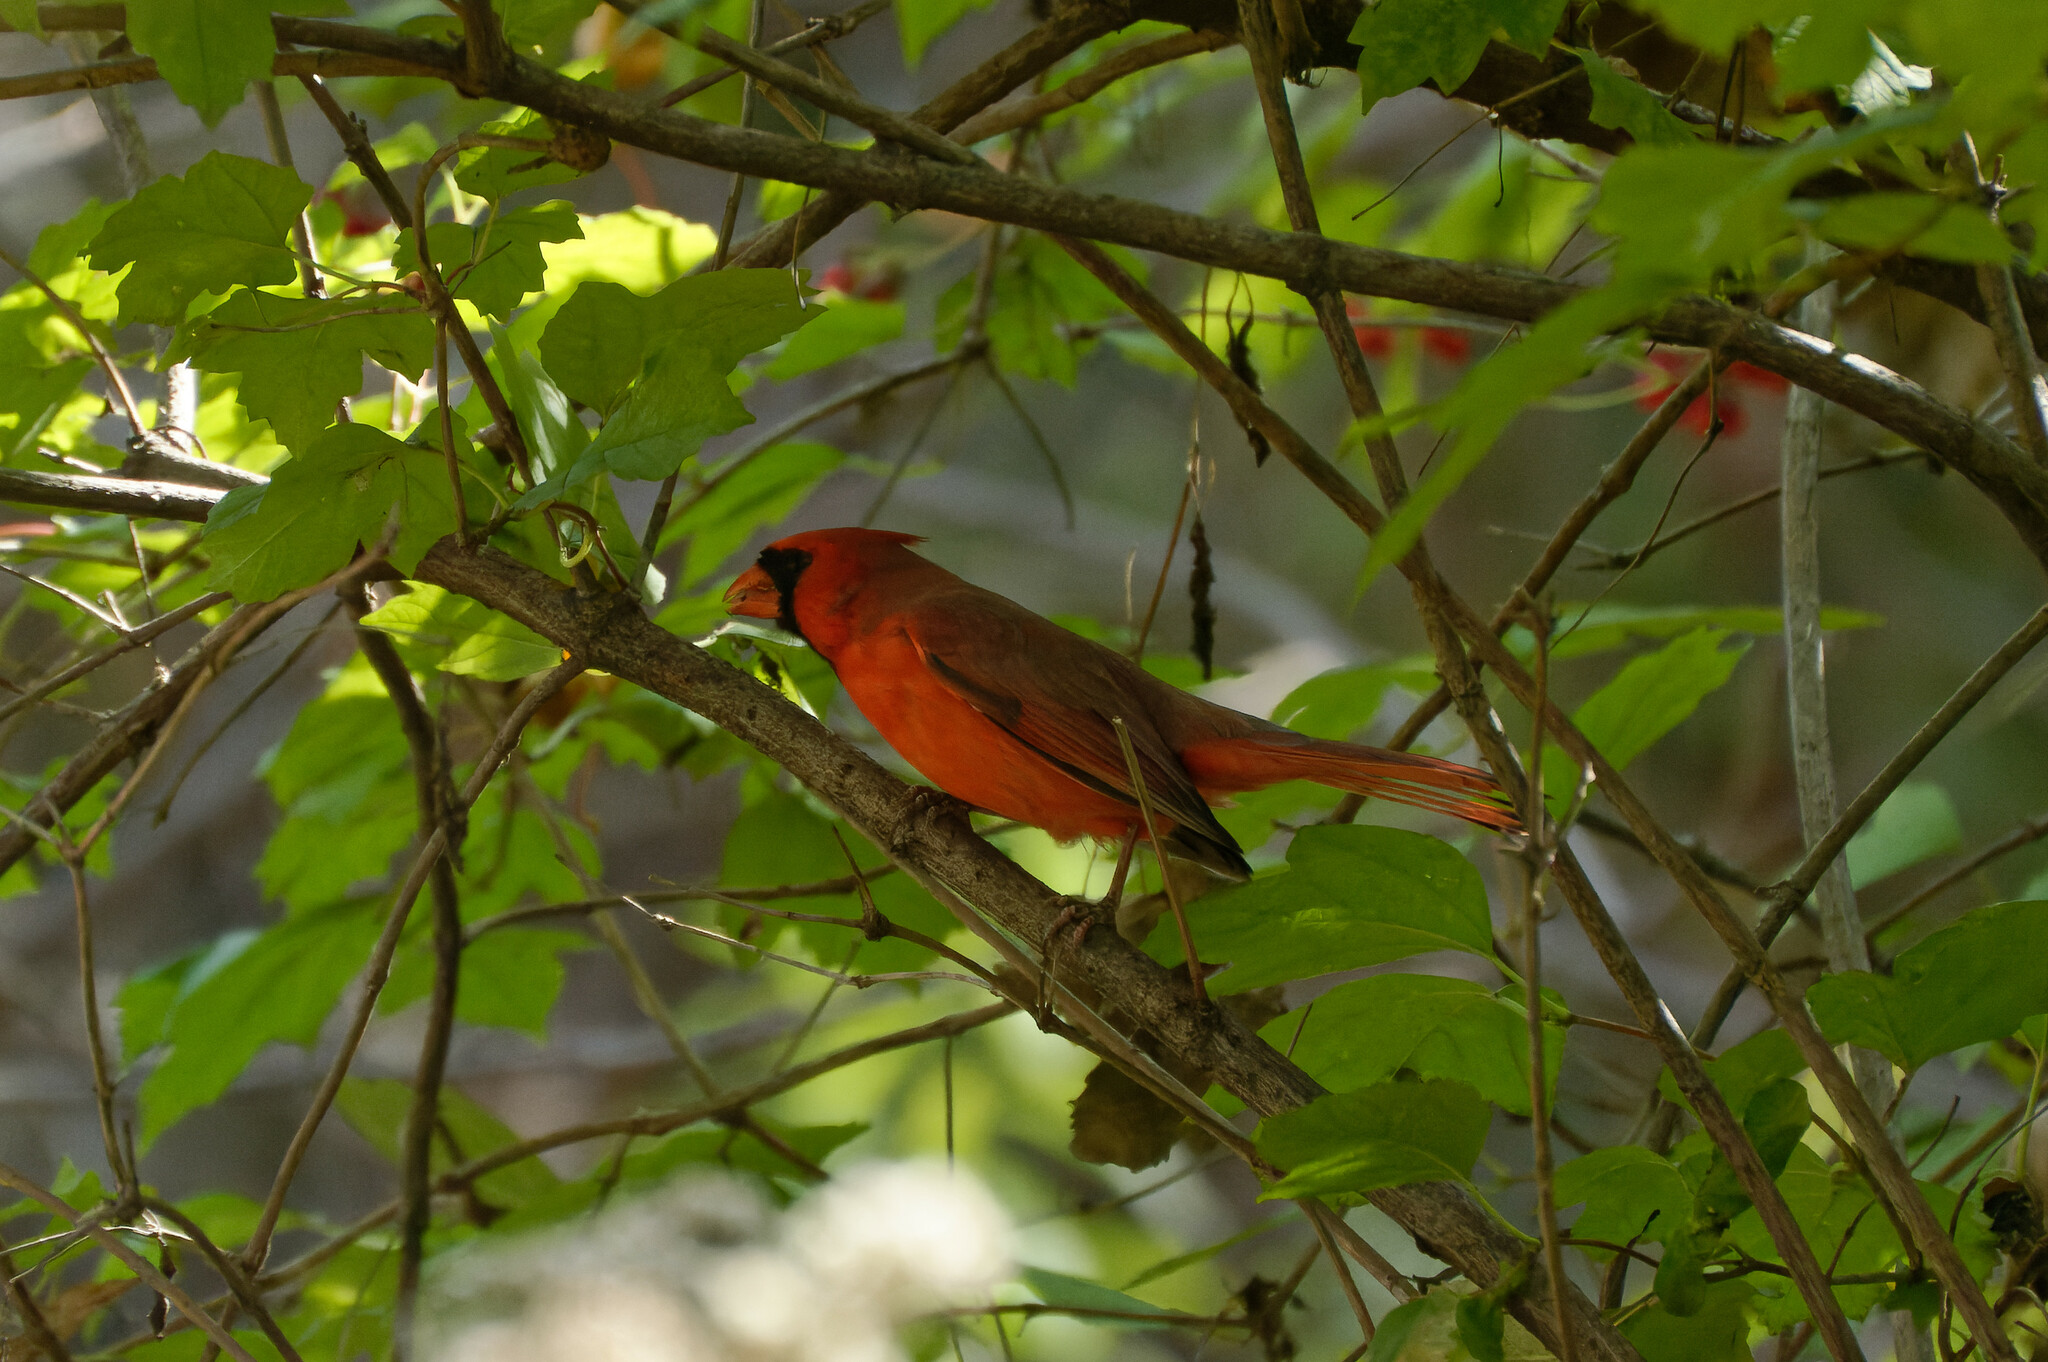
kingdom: Animalia
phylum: Chordata
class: Aves
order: Passeriformes
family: Cardinalidae
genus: Cardinalis
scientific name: Cardinalis cardinalis
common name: Northern cardinal
